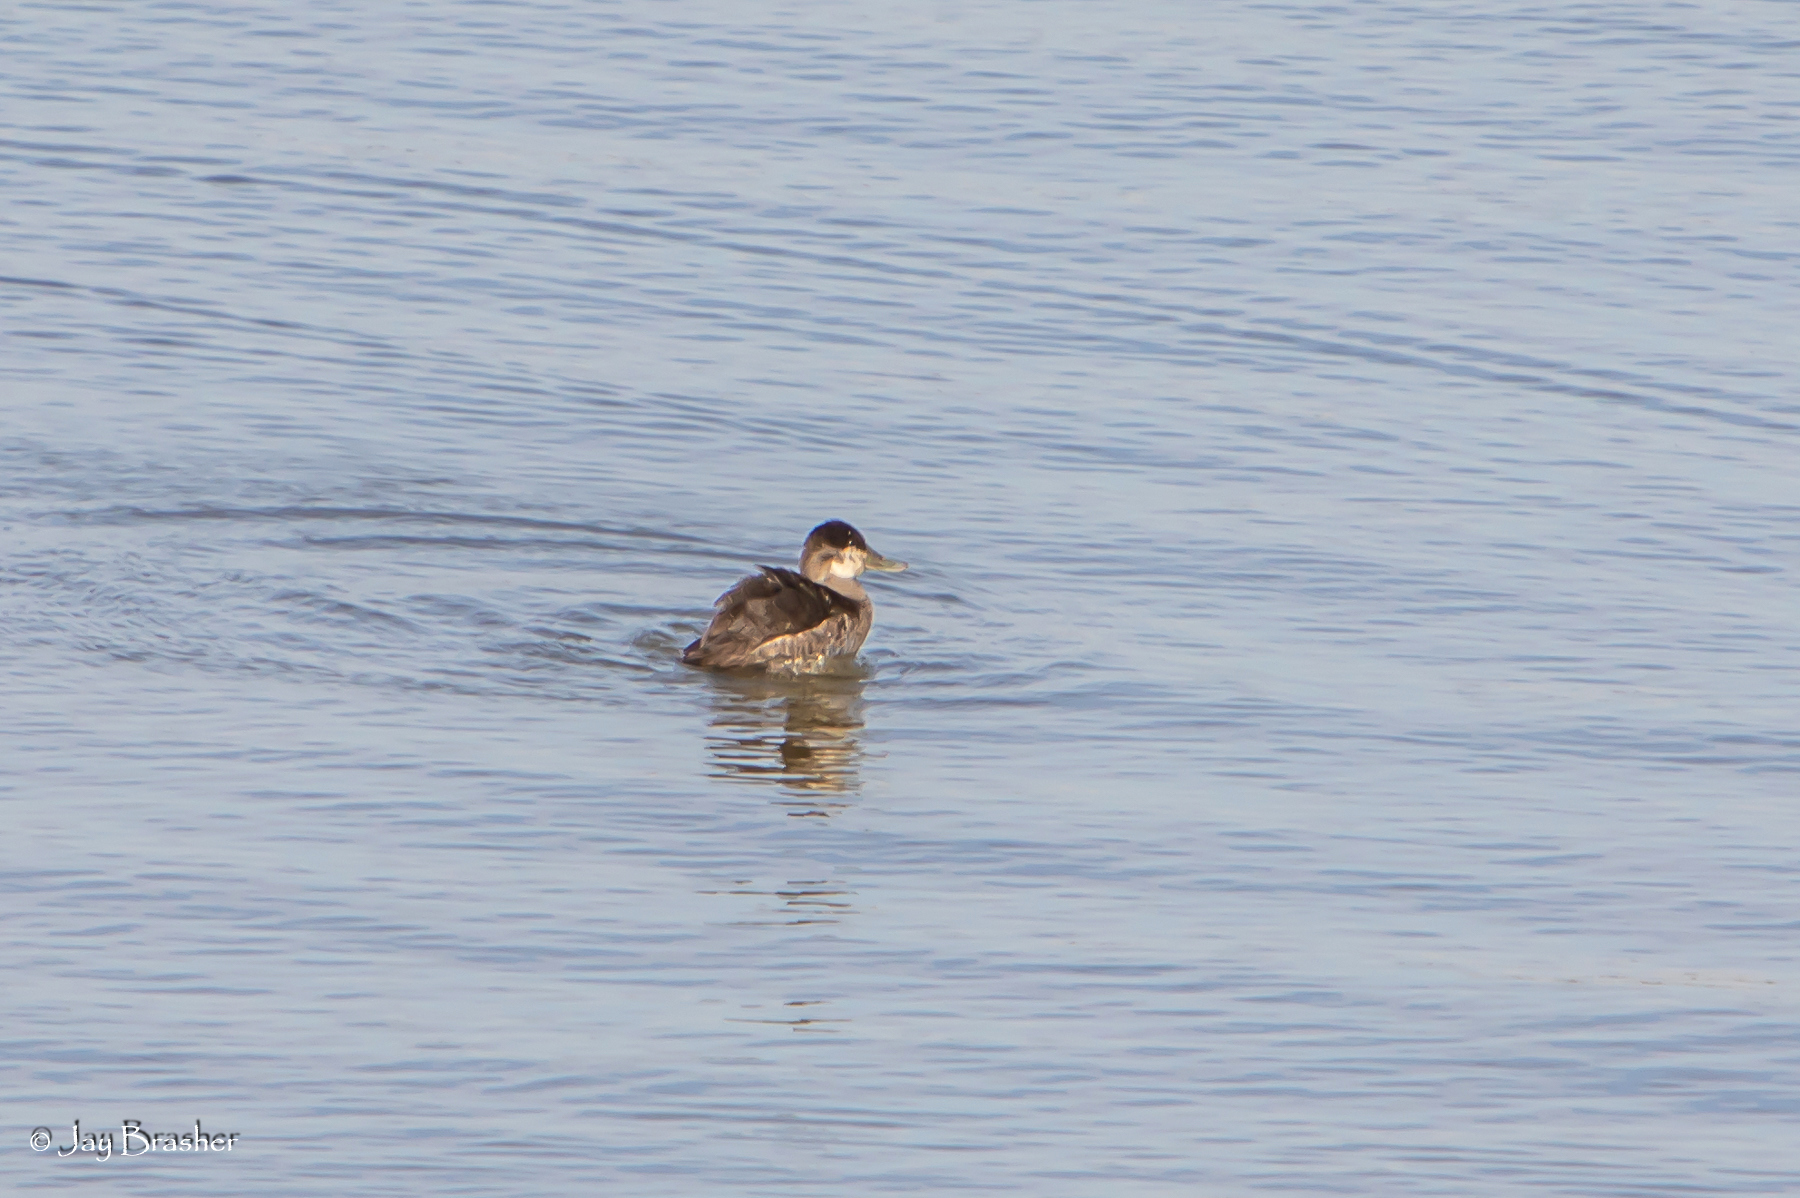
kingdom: Animalia
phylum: Chordata
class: Aves
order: Anseriformes
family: Anatidae
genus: Oxyura
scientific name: Oxyura jamaicensis
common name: Ruddy duck
